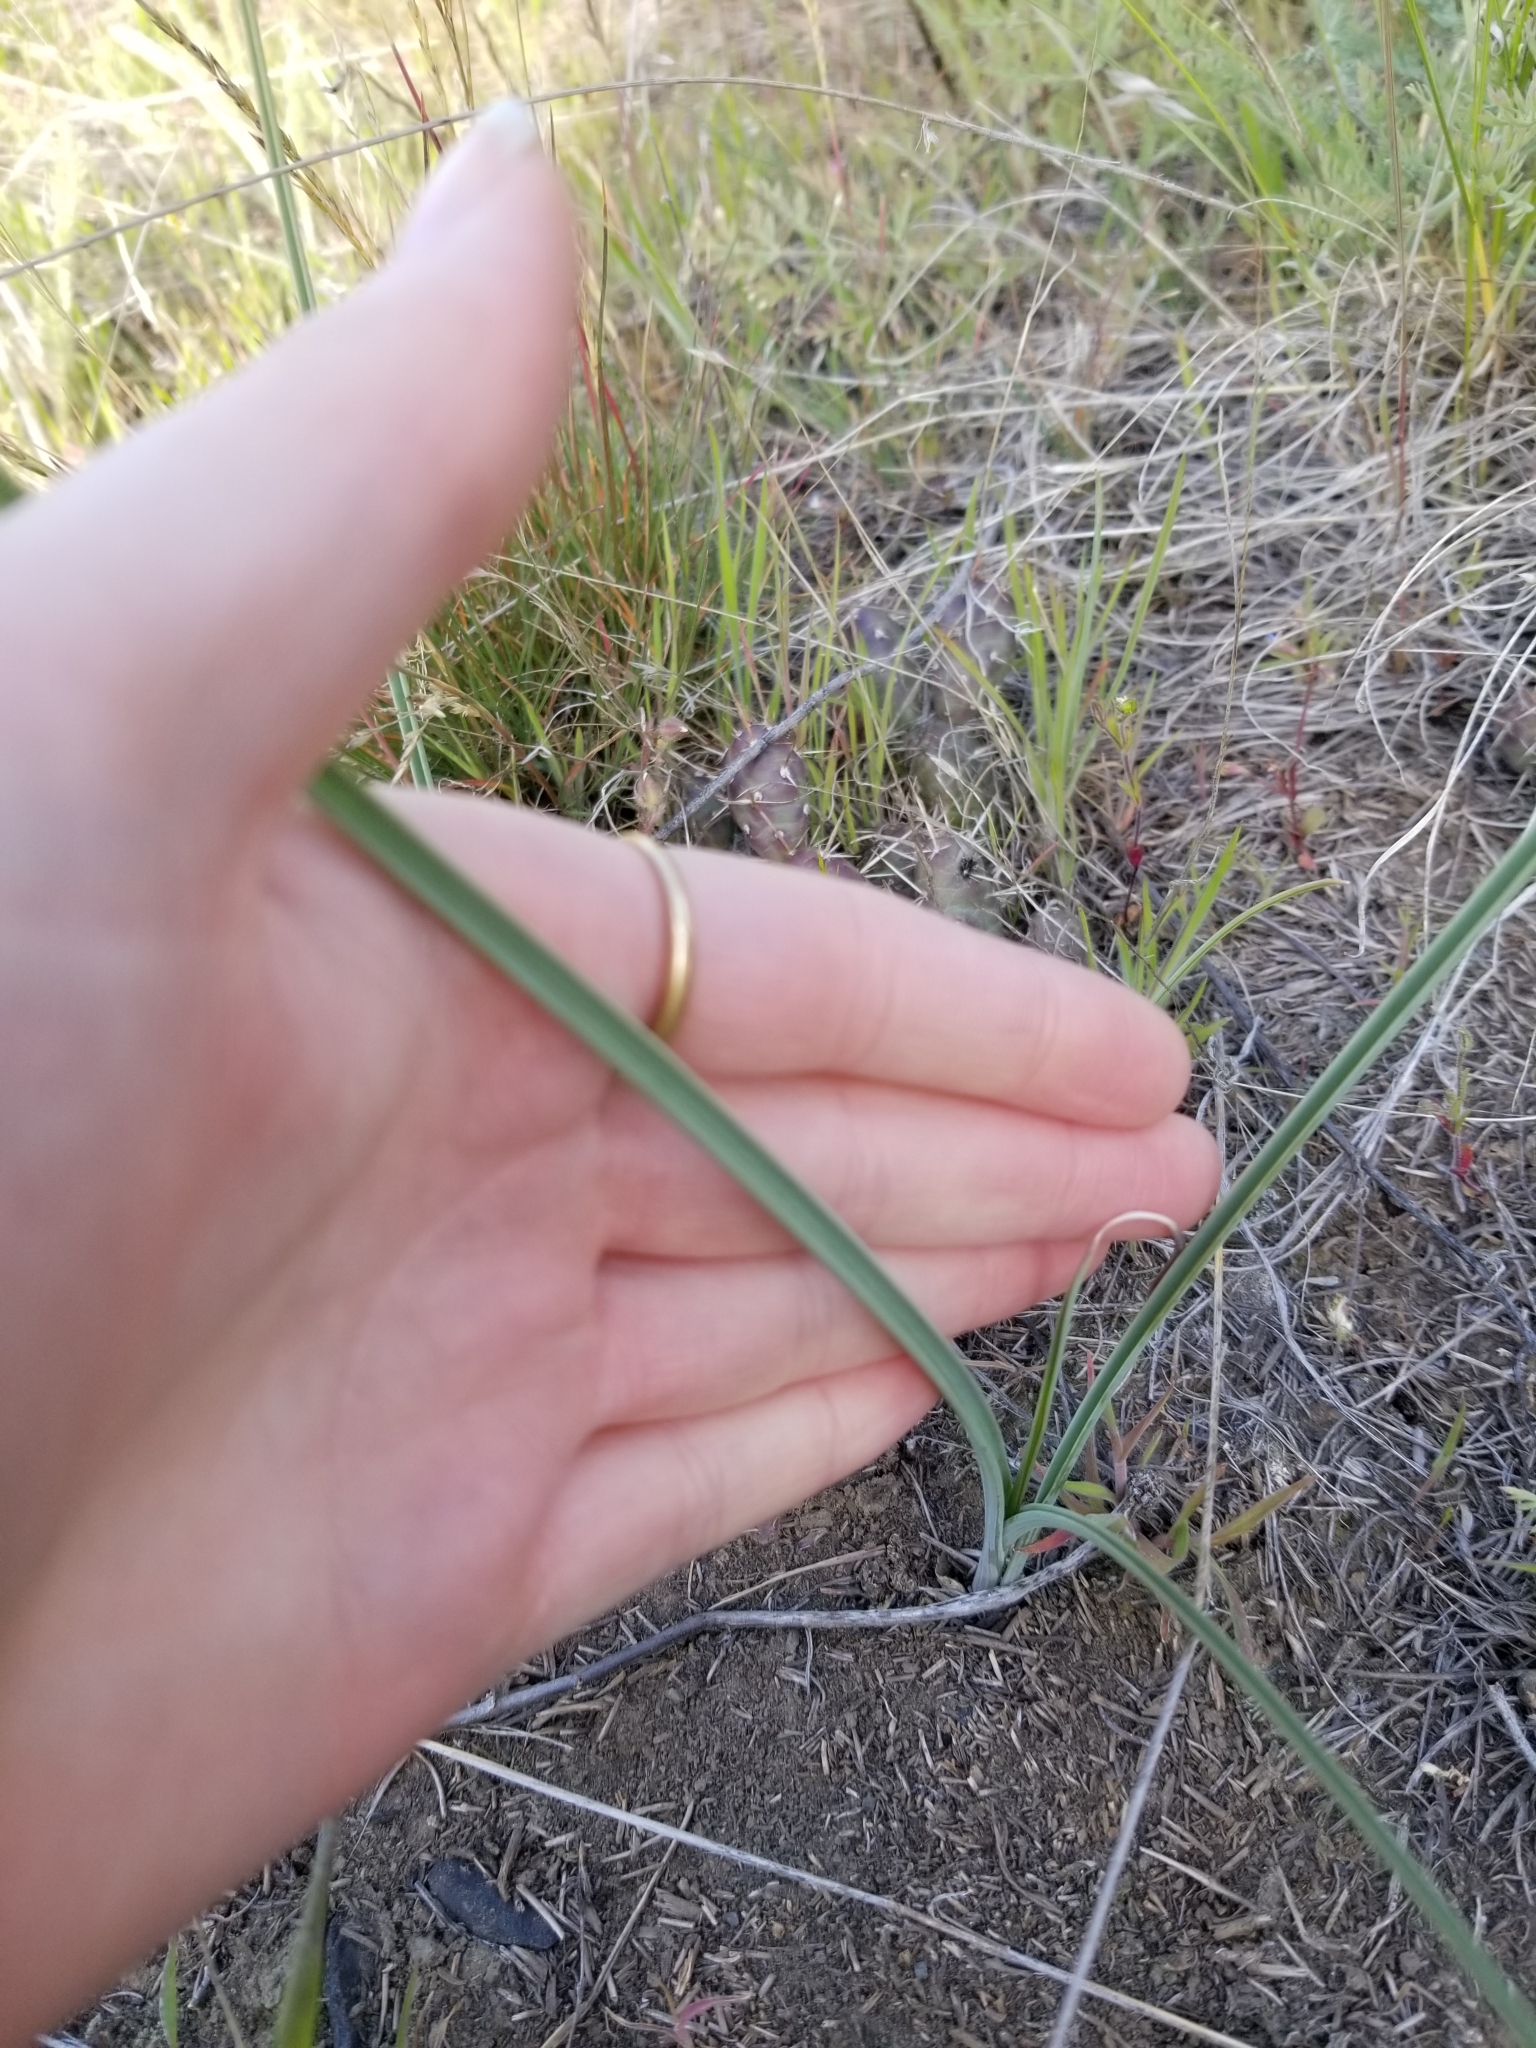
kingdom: Plantae
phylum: Tracheophyta
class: Liliopsida
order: Liliales
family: Liliaceae
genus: Calochortus
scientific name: Calochortus macrocarpus
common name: Green-band mariposa lily
